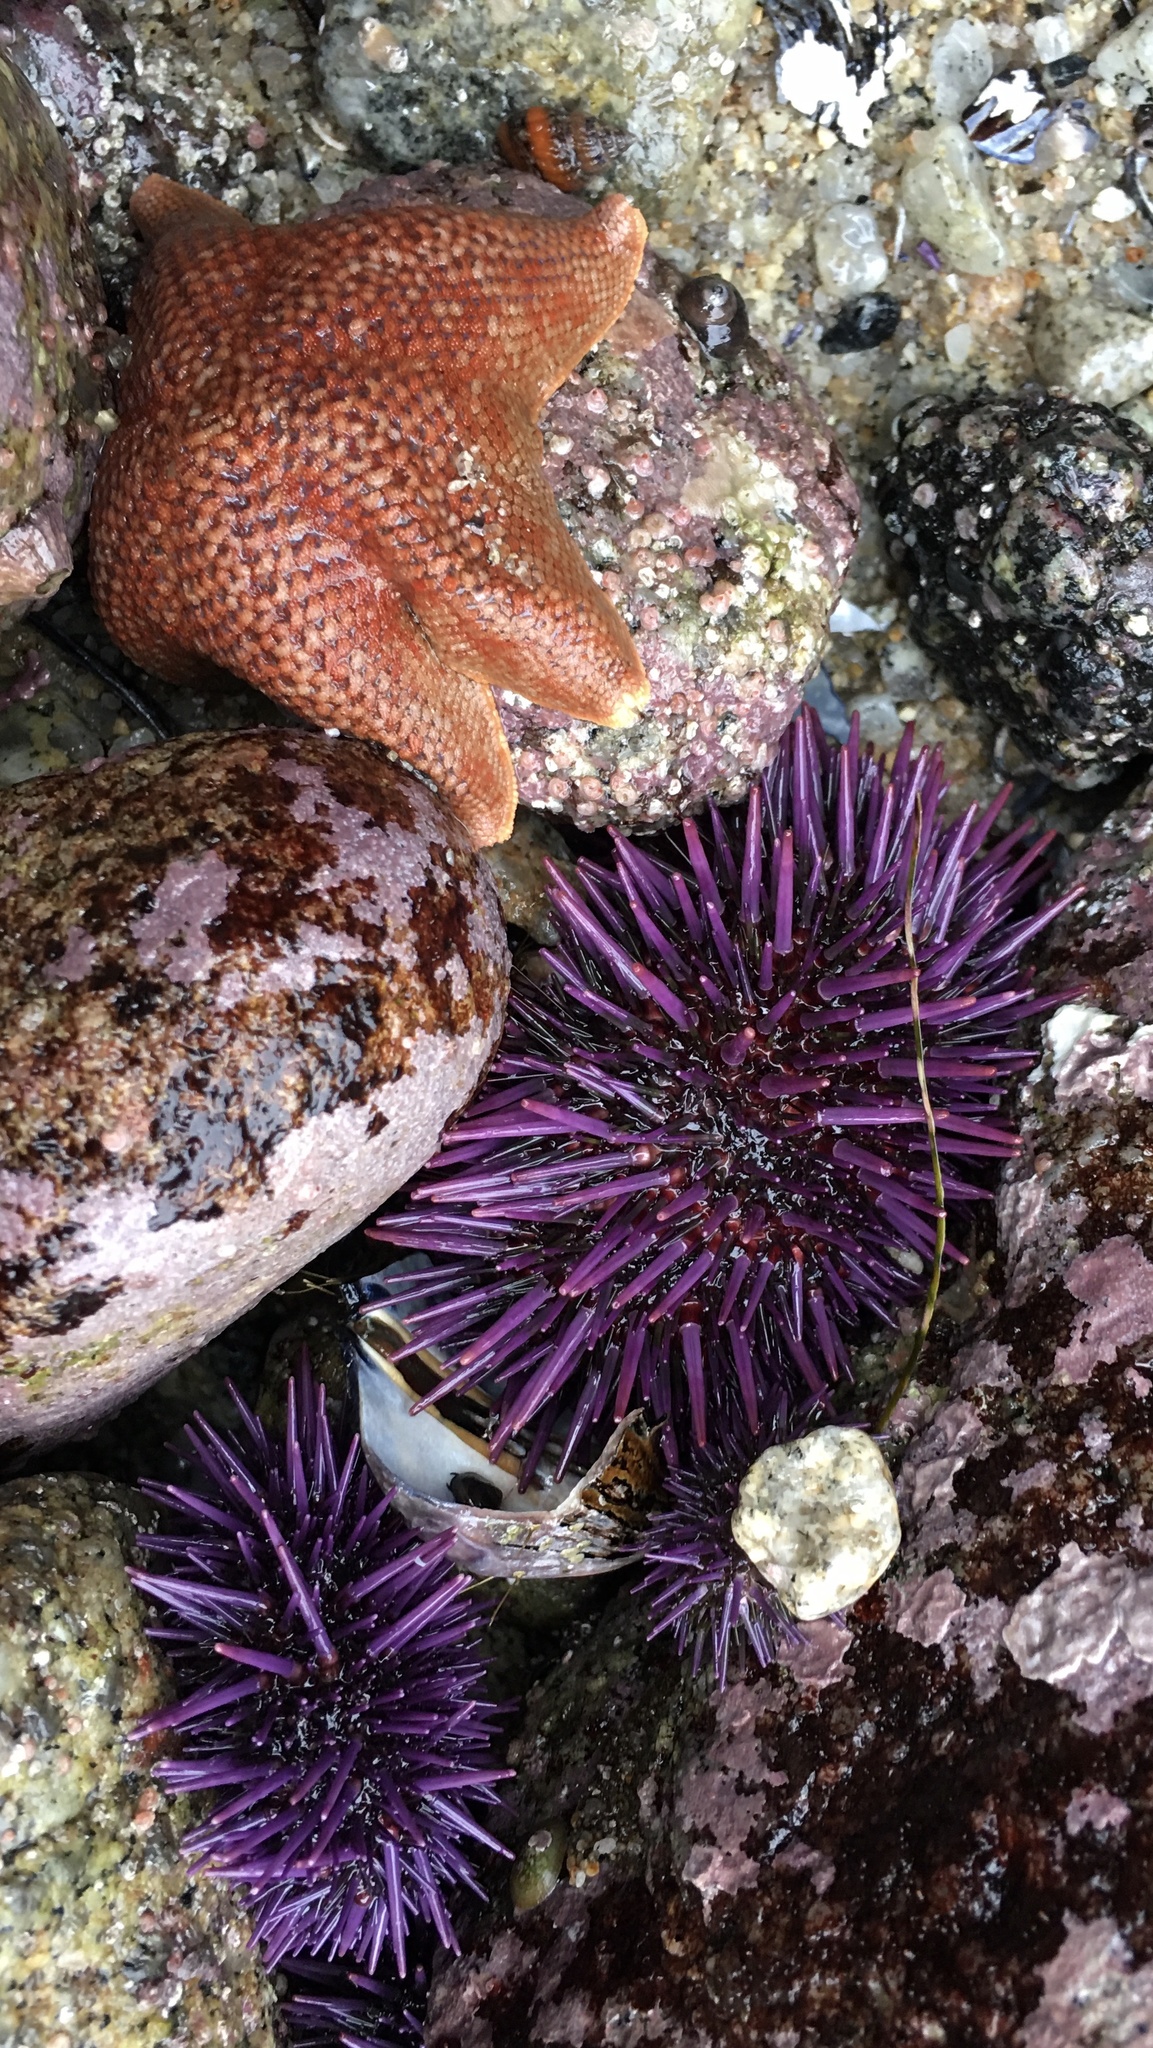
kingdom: Animalia
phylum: Echinodermata
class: Echinoidea
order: Camarodonta
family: Strongylocentrotidae
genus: Strongylocentrotus
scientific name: Strongylocentrotus purpuratus
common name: Purple sea urchin
